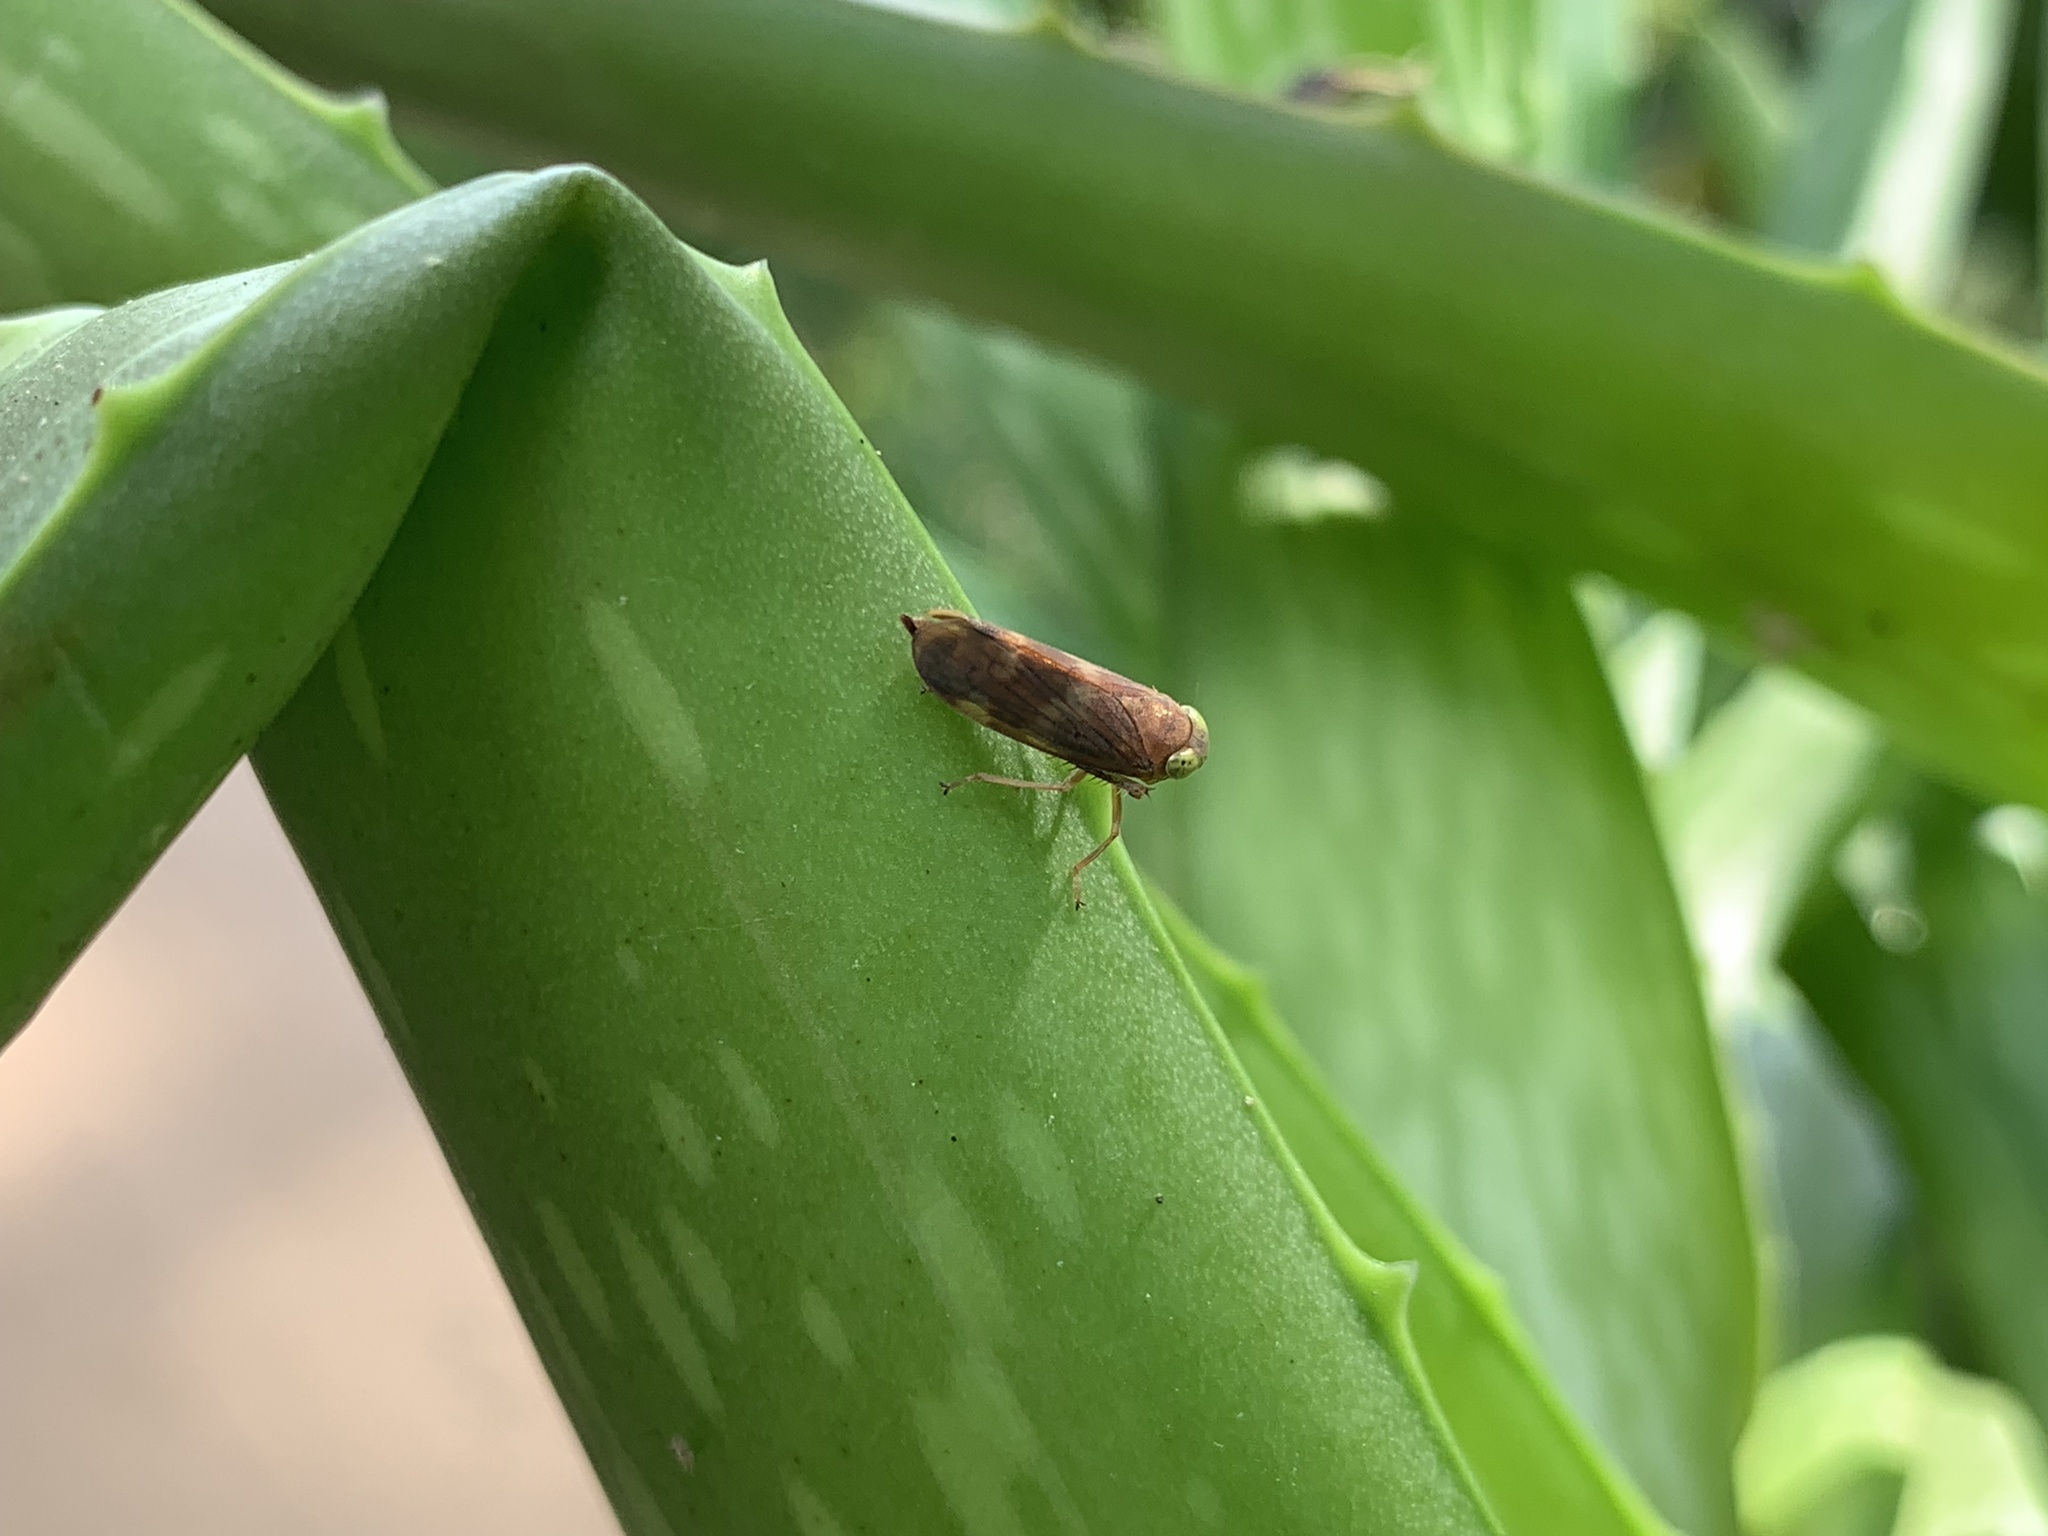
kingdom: Animalia
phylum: Arthropoda
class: Insecta
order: Hemiptera
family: Cicadellidae
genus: Jikradia
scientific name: Jikradia olitoria
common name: Coppery leafhopper
